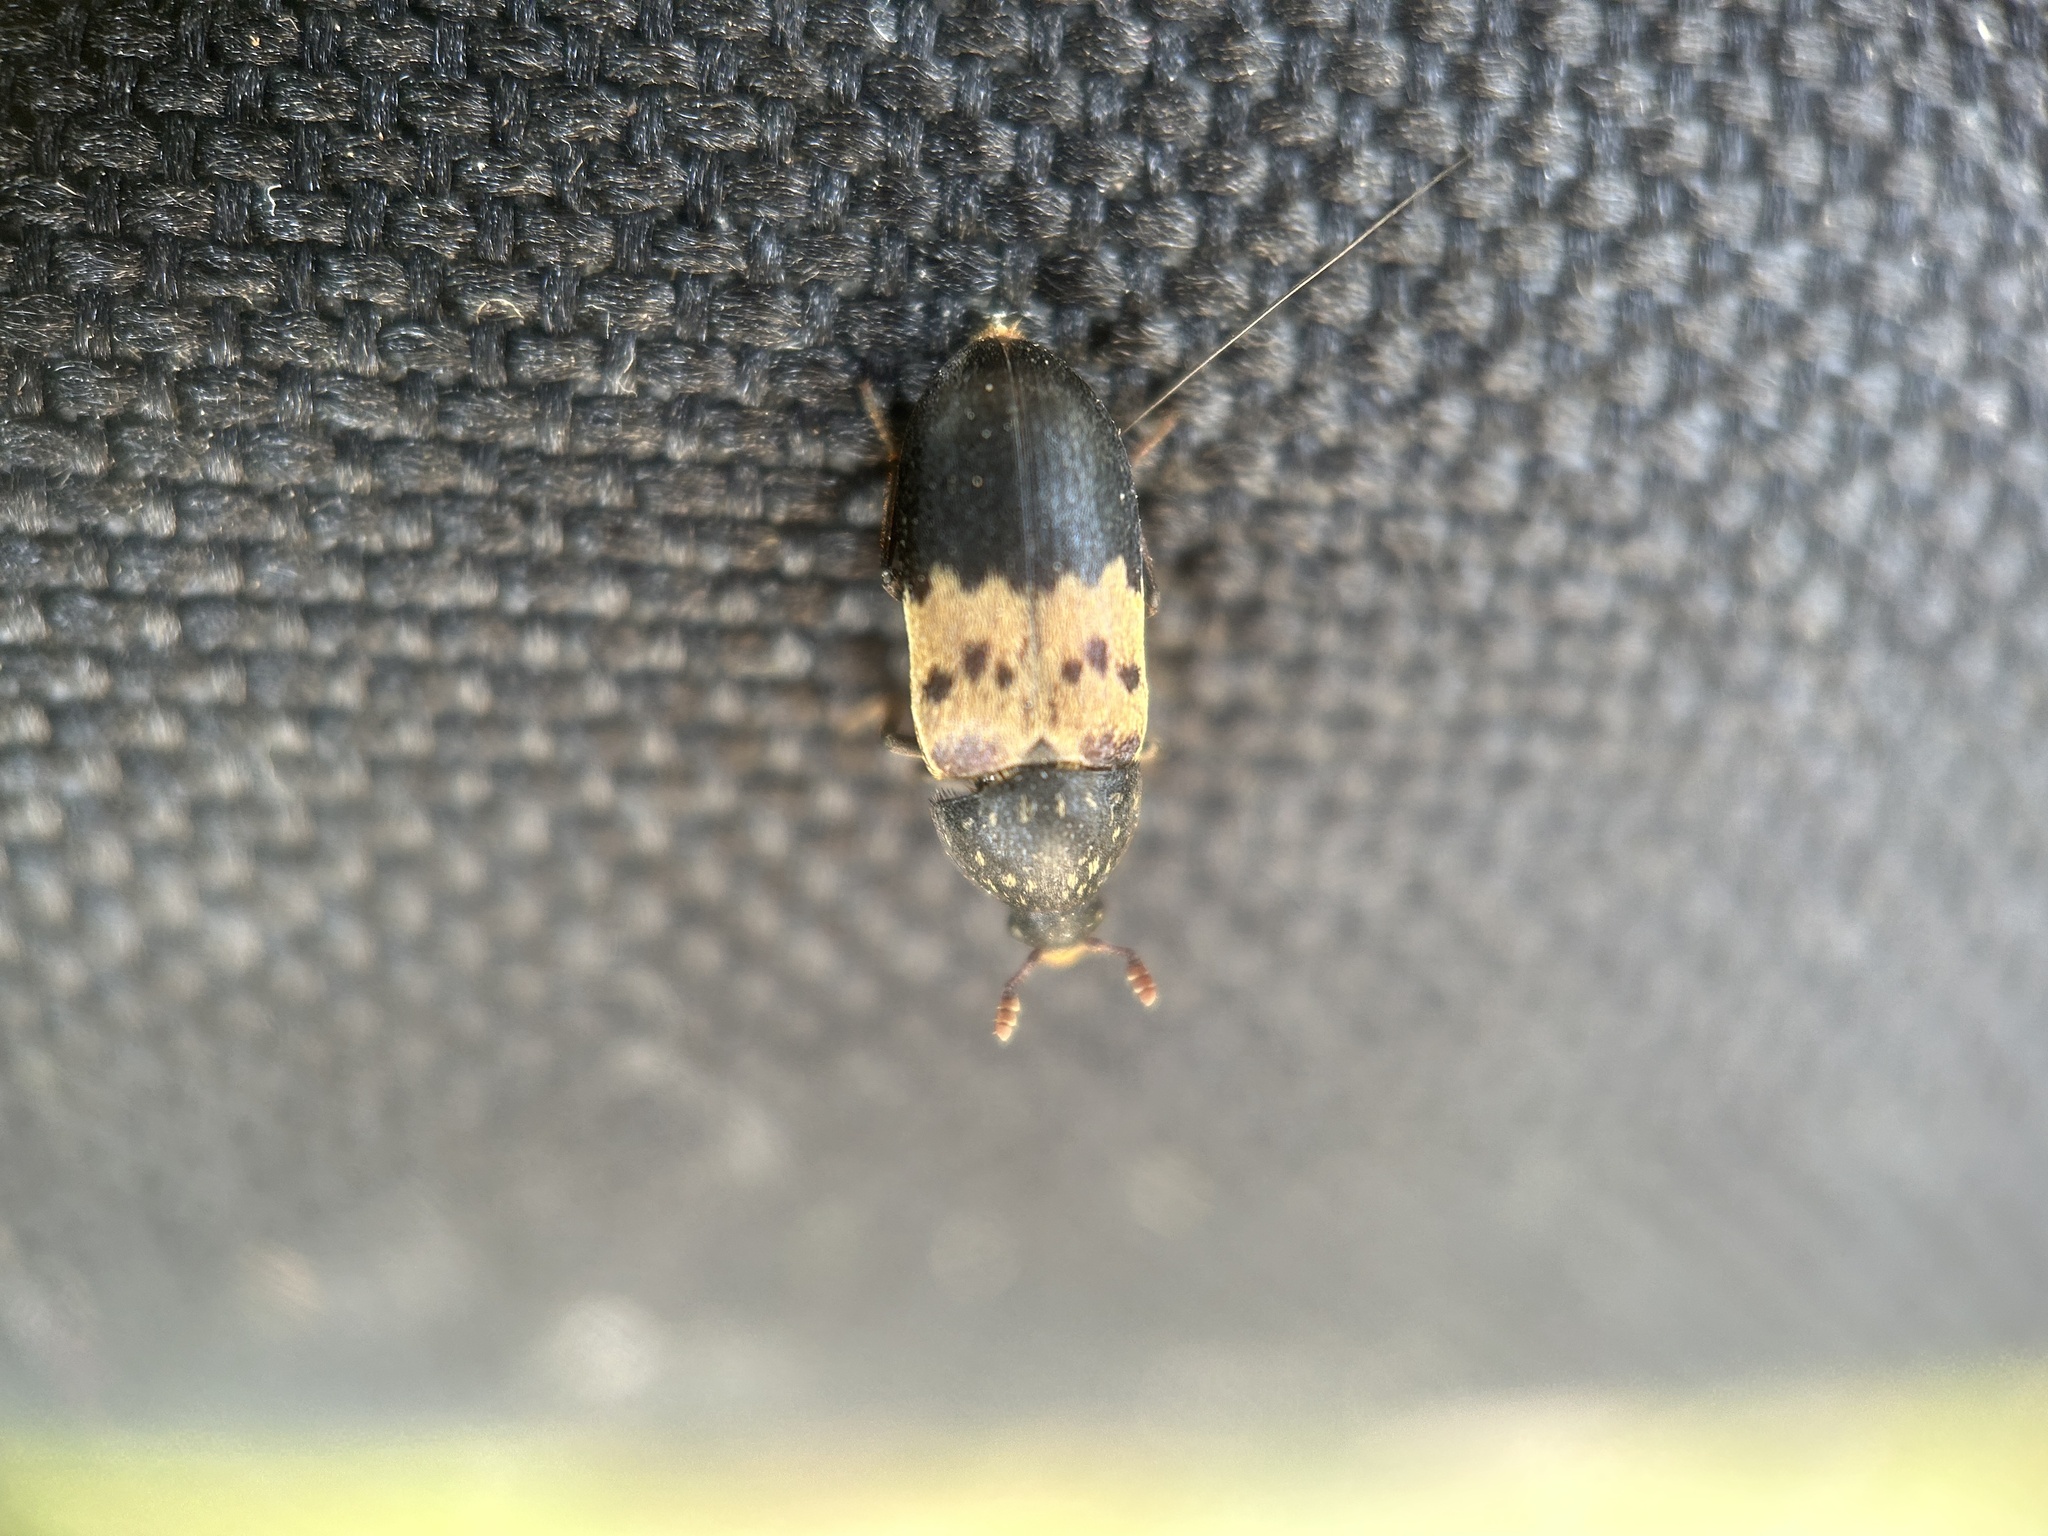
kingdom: Animalia
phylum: Arthropoda
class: Insecta
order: Coleoptera
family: Dermestidae
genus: Dermestes
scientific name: Dermestes lardarius
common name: Larder beetle
